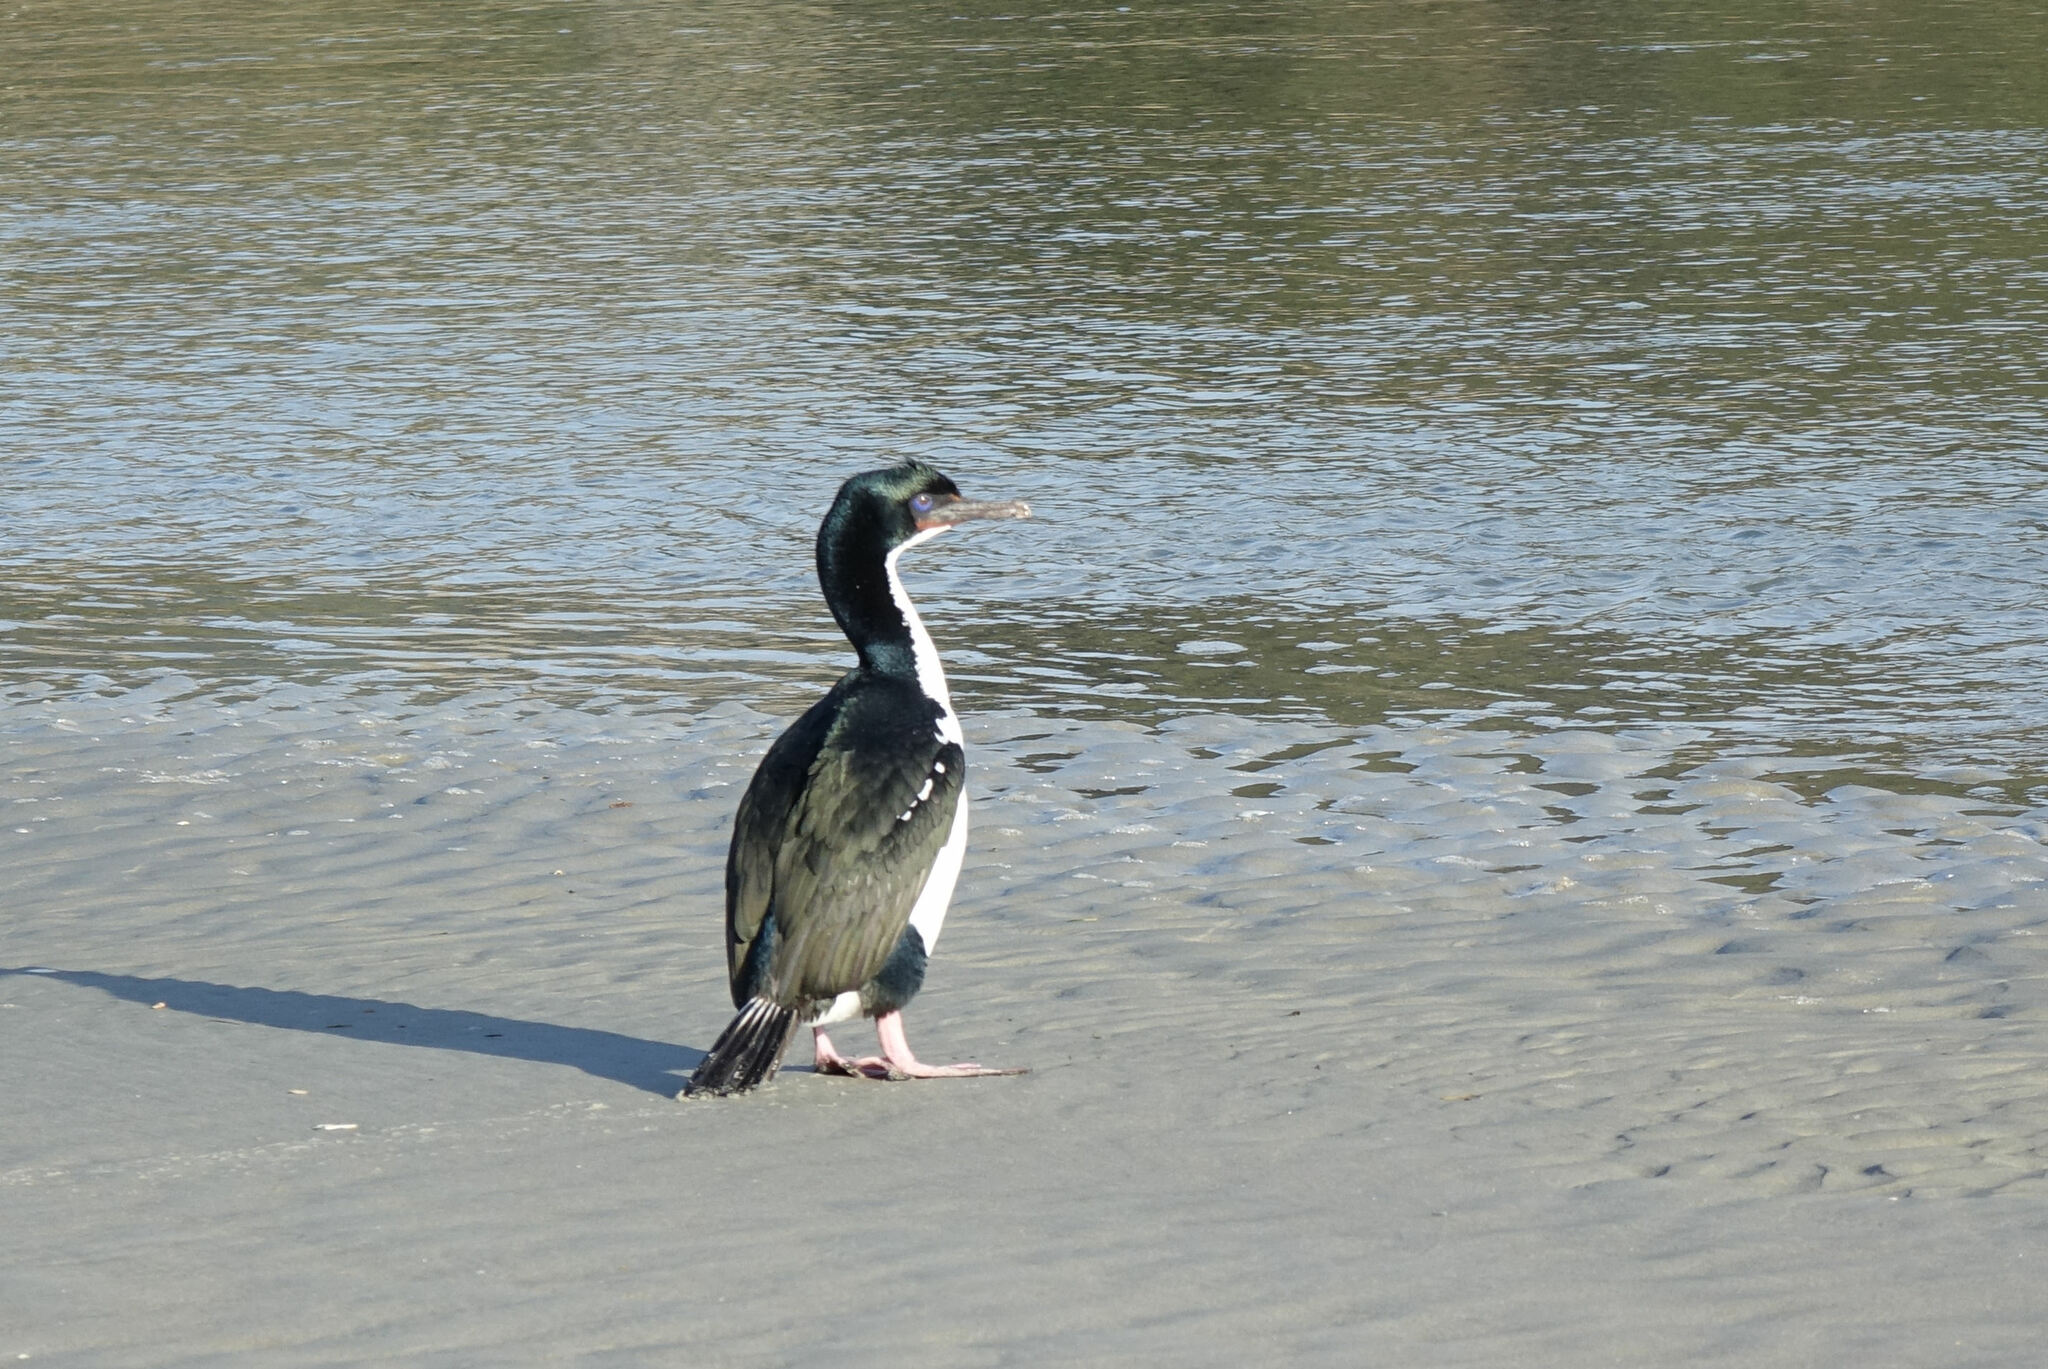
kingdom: Animalia
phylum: Chordata
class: Aves
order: Suliformes
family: Phalacrocoracidae
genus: Leucocarbo
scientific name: Leucocarbo chalconotus
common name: Stewart shag
